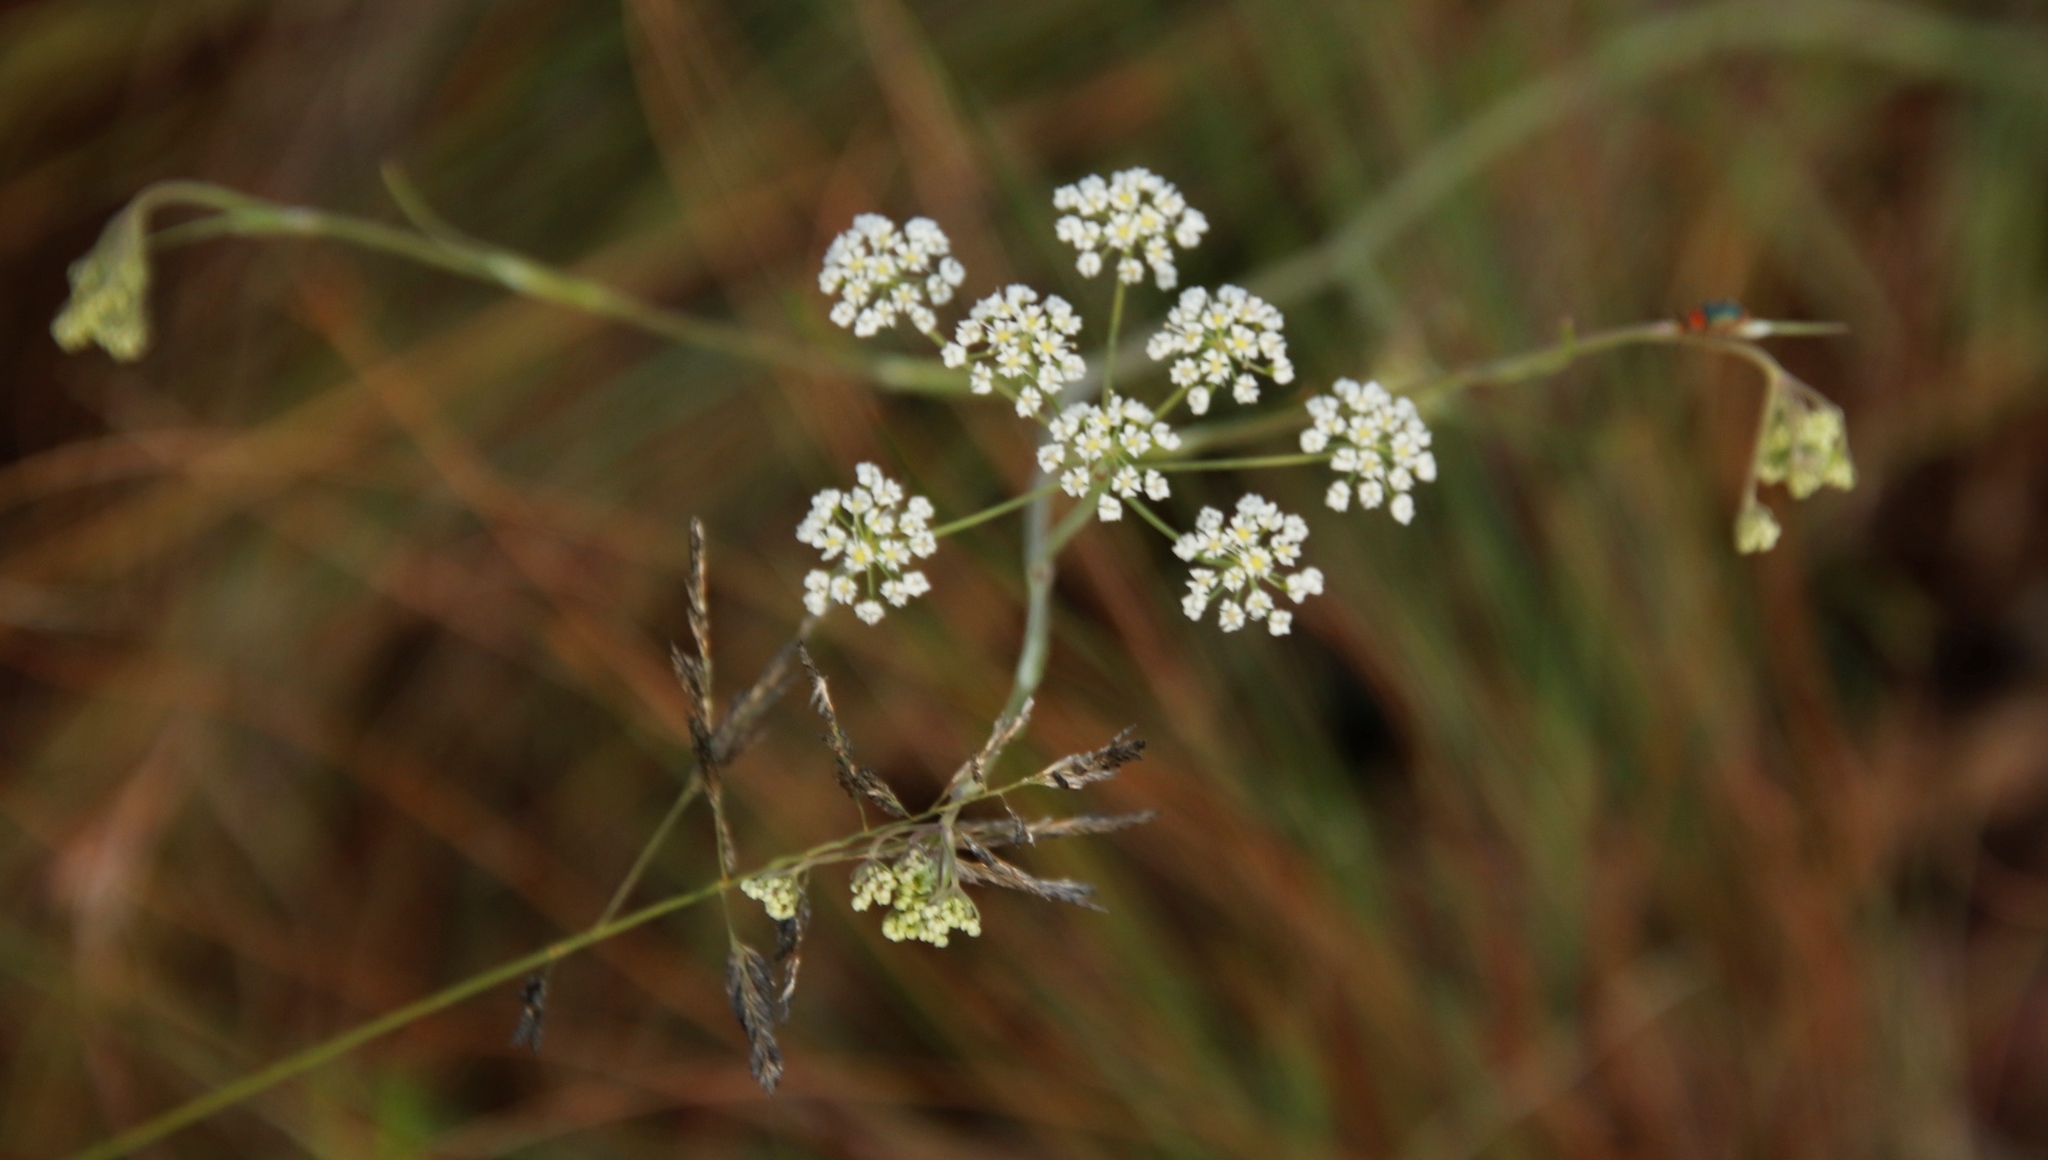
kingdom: Plantae
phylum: Tracheophyta
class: Magnoliopsida
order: Apiales
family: Apiaceae
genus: Pimpinella
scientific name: Pimpinella caffra
